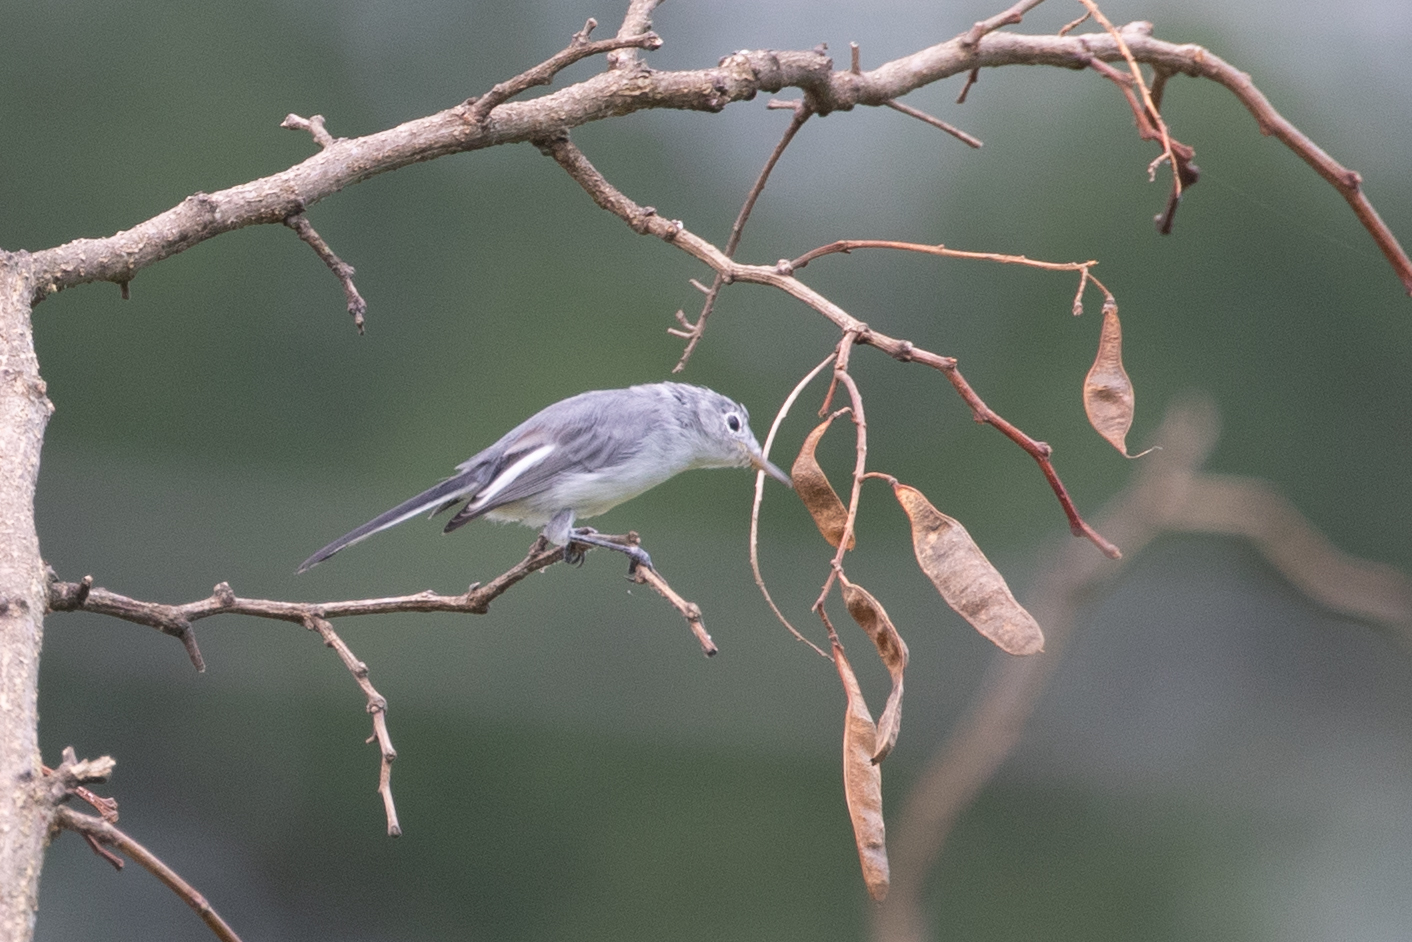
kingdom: Animalia
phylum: Chordata
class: Aves
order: Passeriformes
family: Polioptilidae
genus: Polioptila
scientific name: Polioptila caerulea
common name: Blue-gray gnatcatcher
